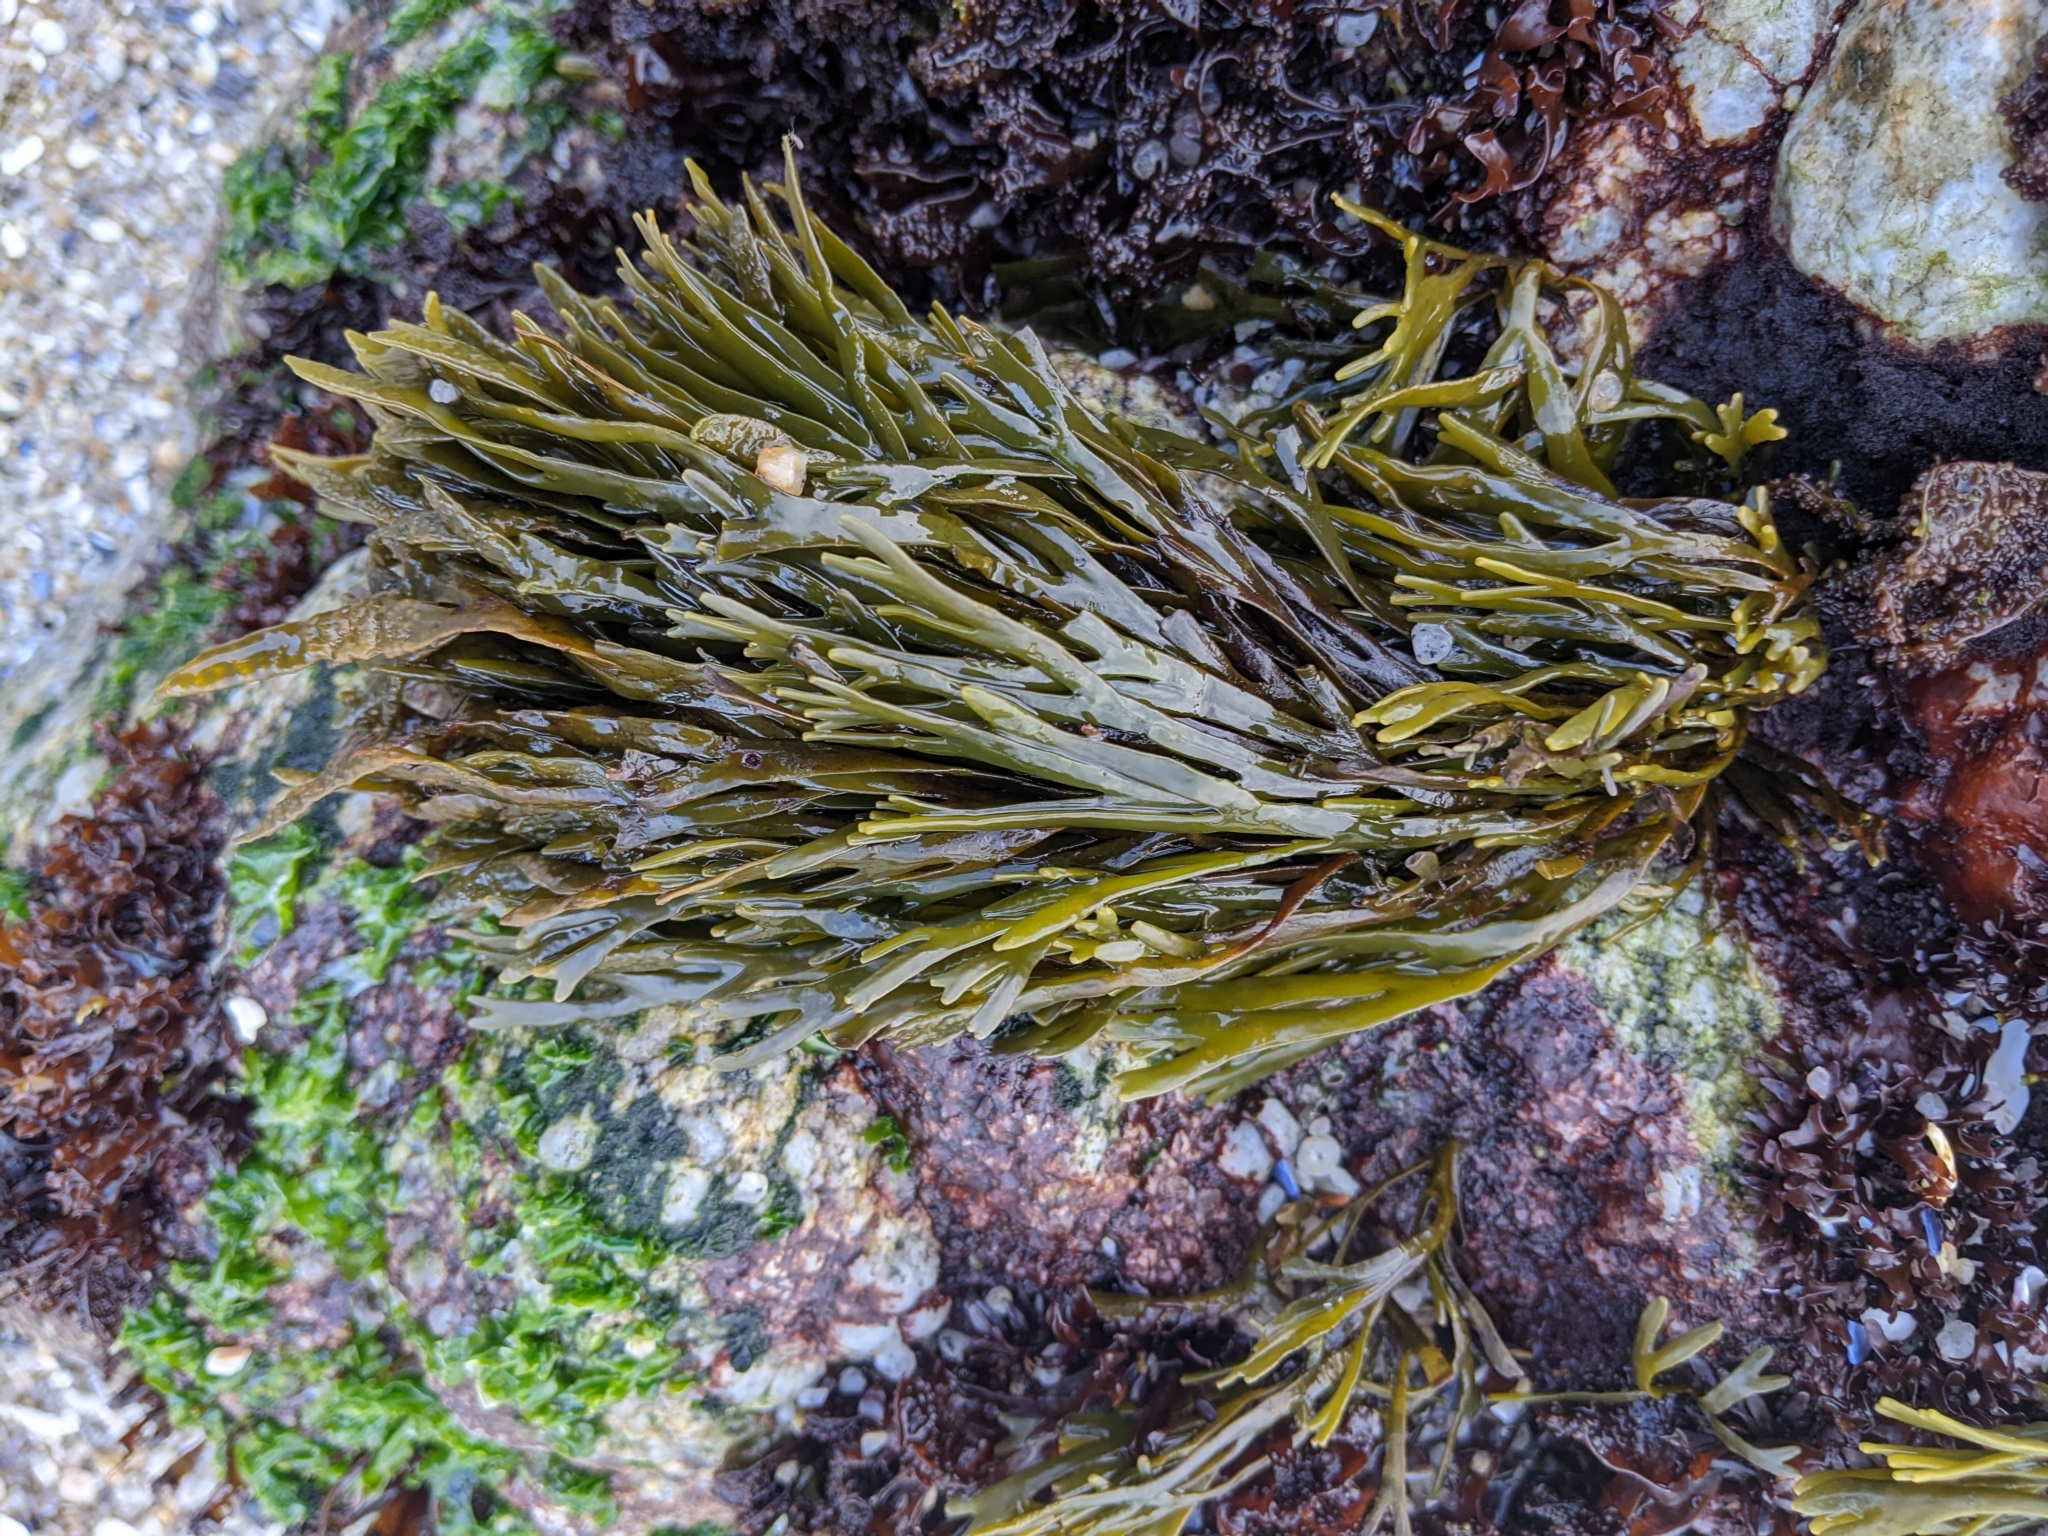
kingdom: Chromista
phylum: Ochrophyta
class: Phaeophyceae
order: Fucales
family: Fucaceae
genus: Silvetia
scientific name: Silvetia
